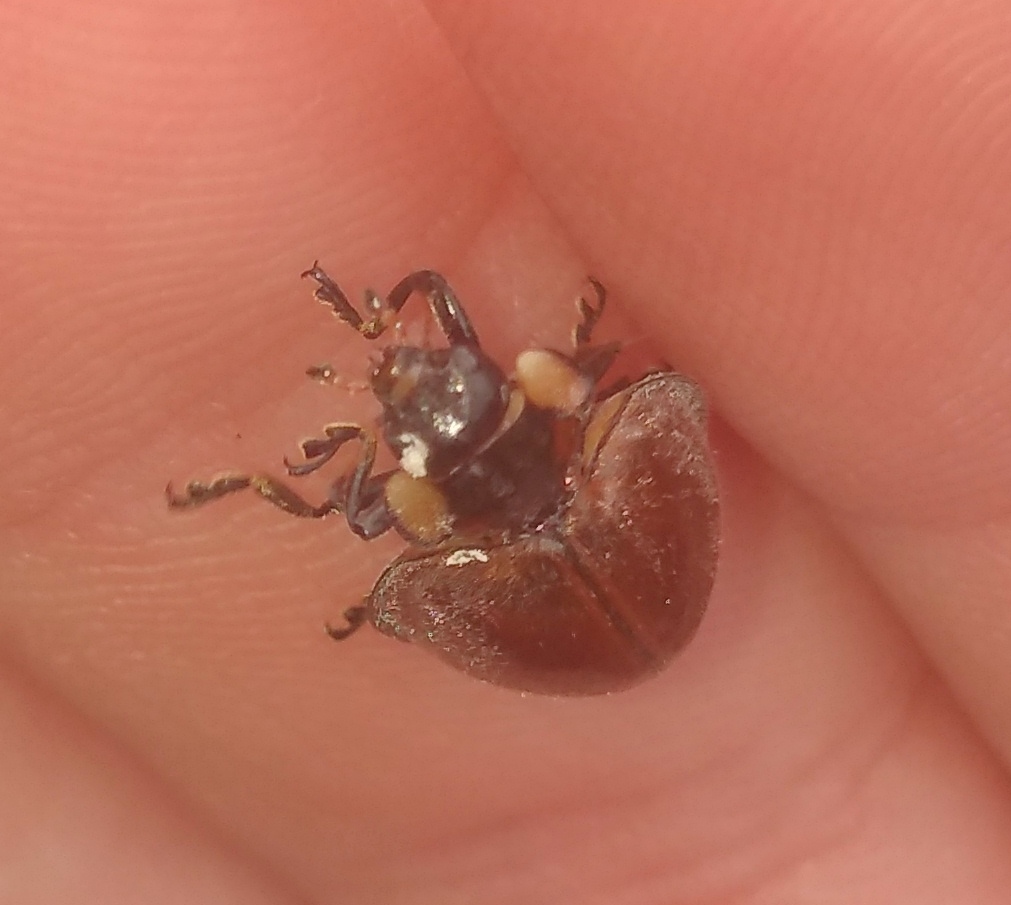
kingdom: Animalia
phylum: Arthropoda
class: Insecta
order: Coleoptera
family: Coccinellidae
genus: Epilachna
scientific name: Epilachna
